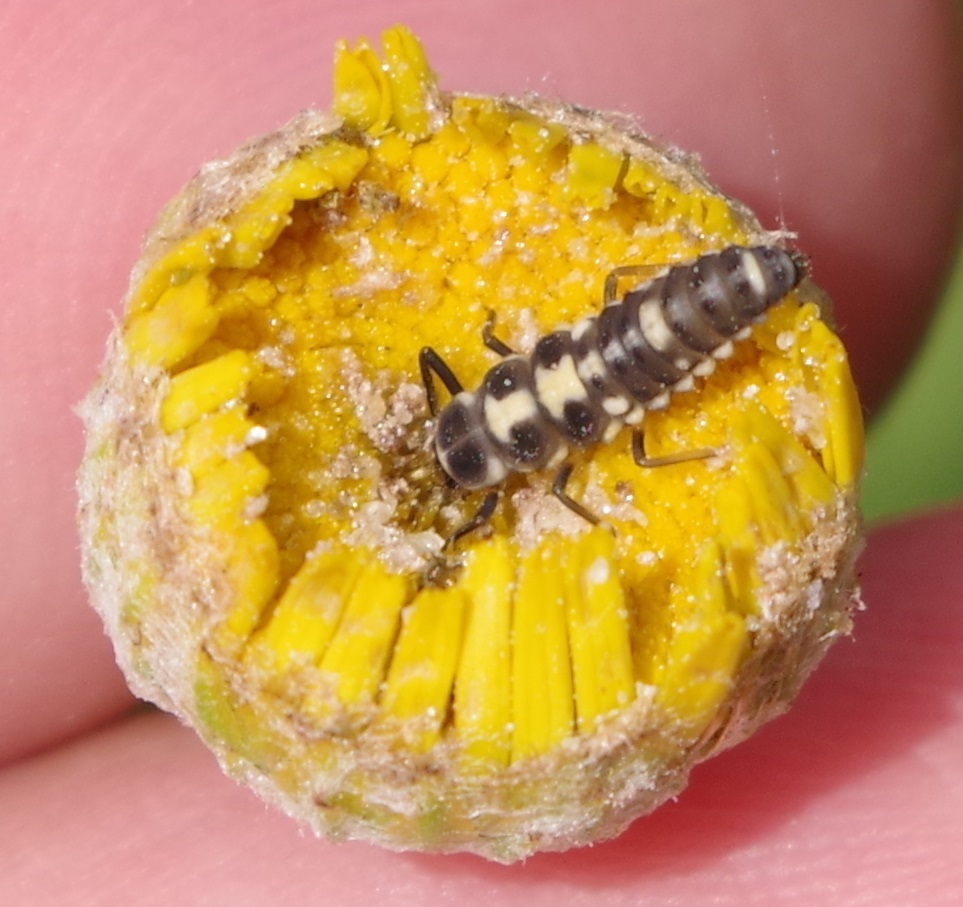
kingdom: Animalia
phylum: Arthropoda
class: Insecta
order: Coleoptera
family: Coccinellidae
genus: Propylaea
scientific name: Propylaea quatuordecimpunctata
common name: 14-spotted ladybird beetle
